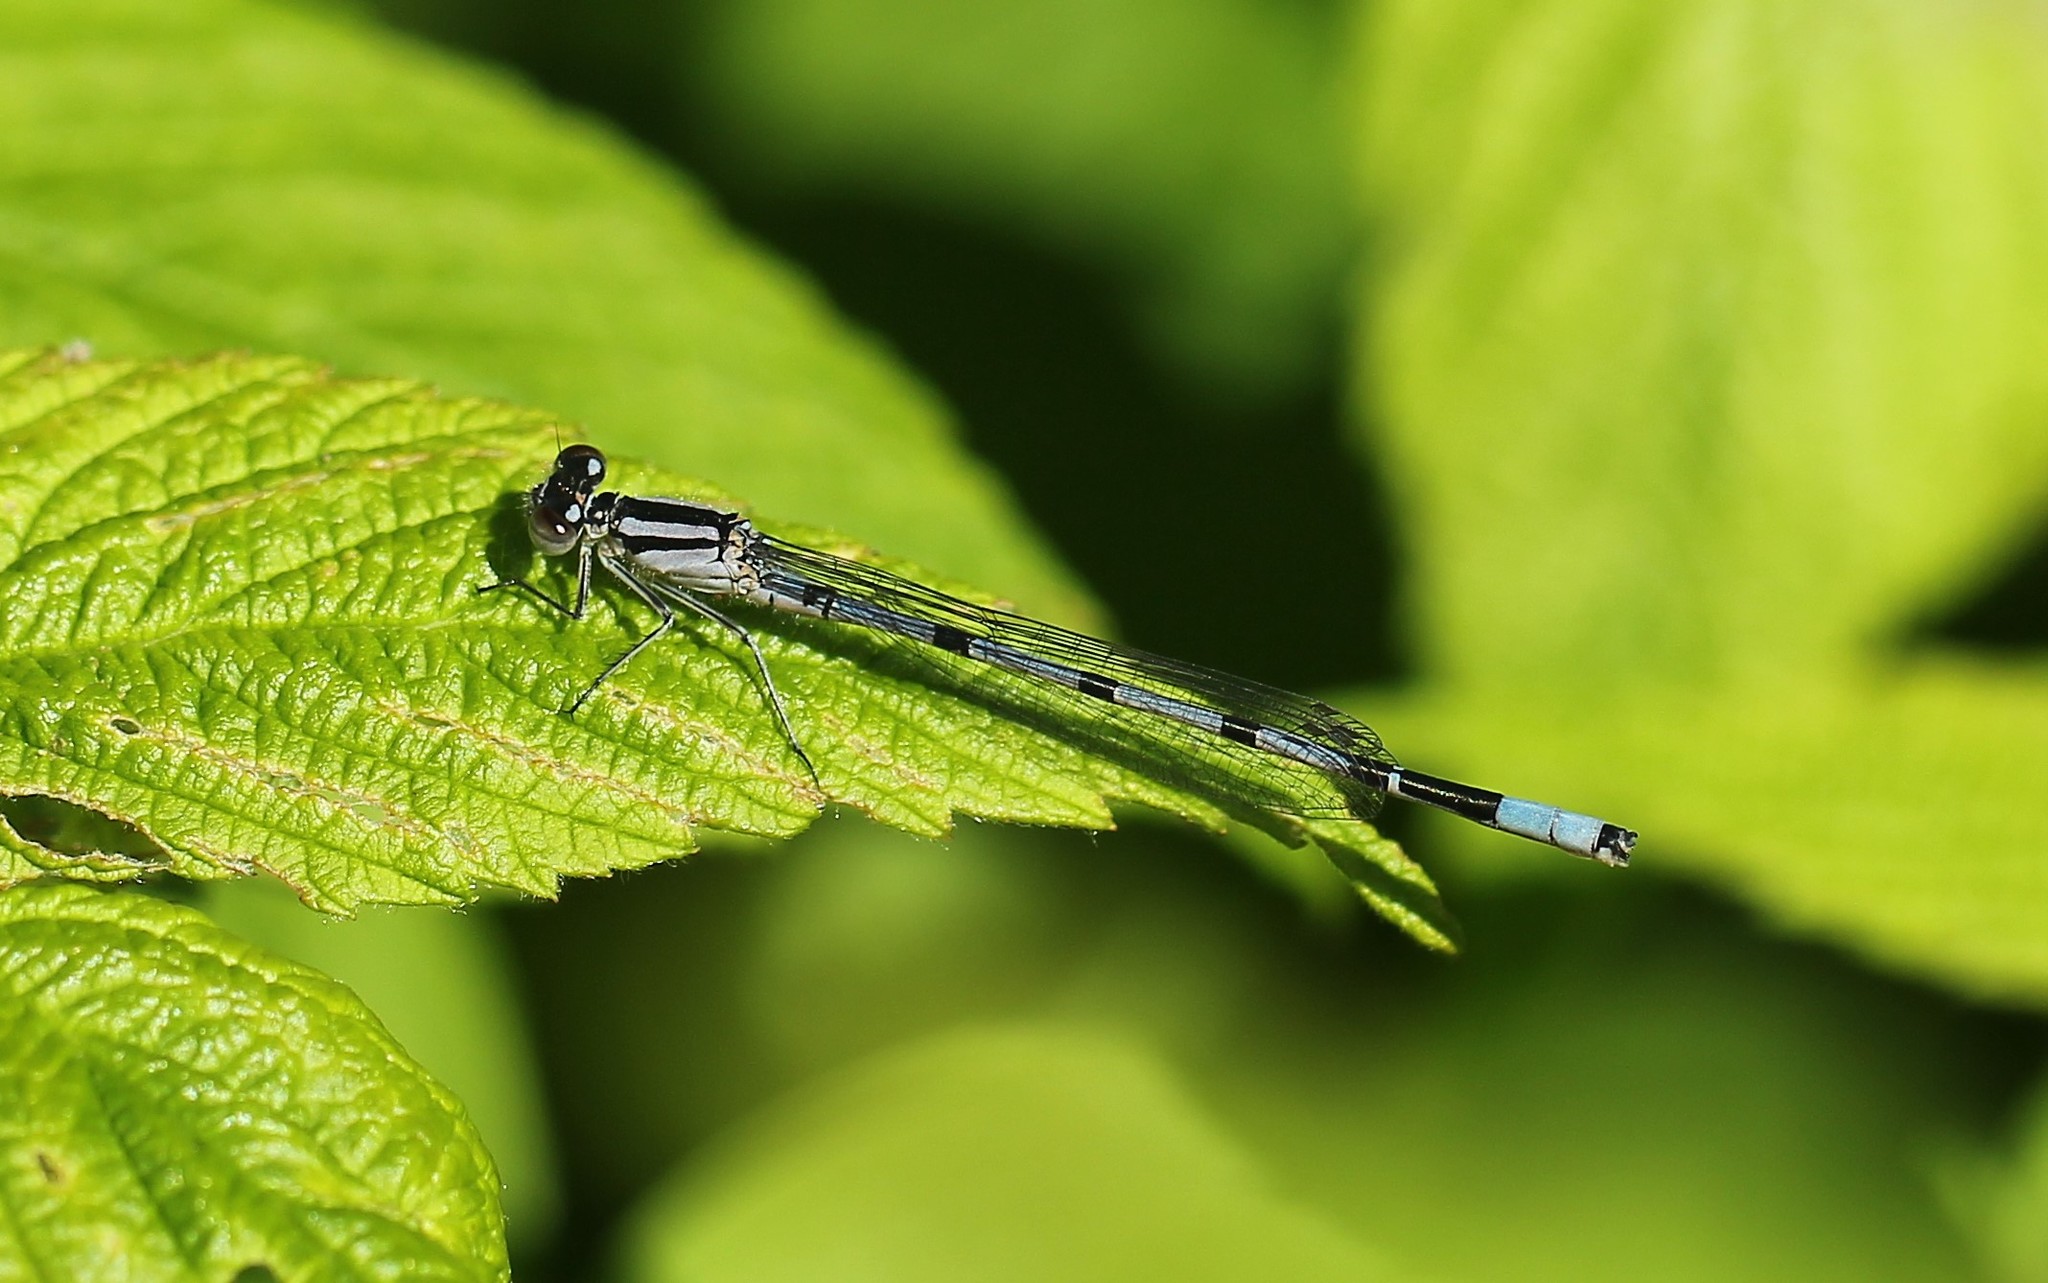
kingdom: Animalia
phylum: Arthropoda
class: Insecta
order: Odonata
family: Coenagrionidae
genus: Enallagma
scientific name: Enallagma ebrium
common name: Marsh bluet
